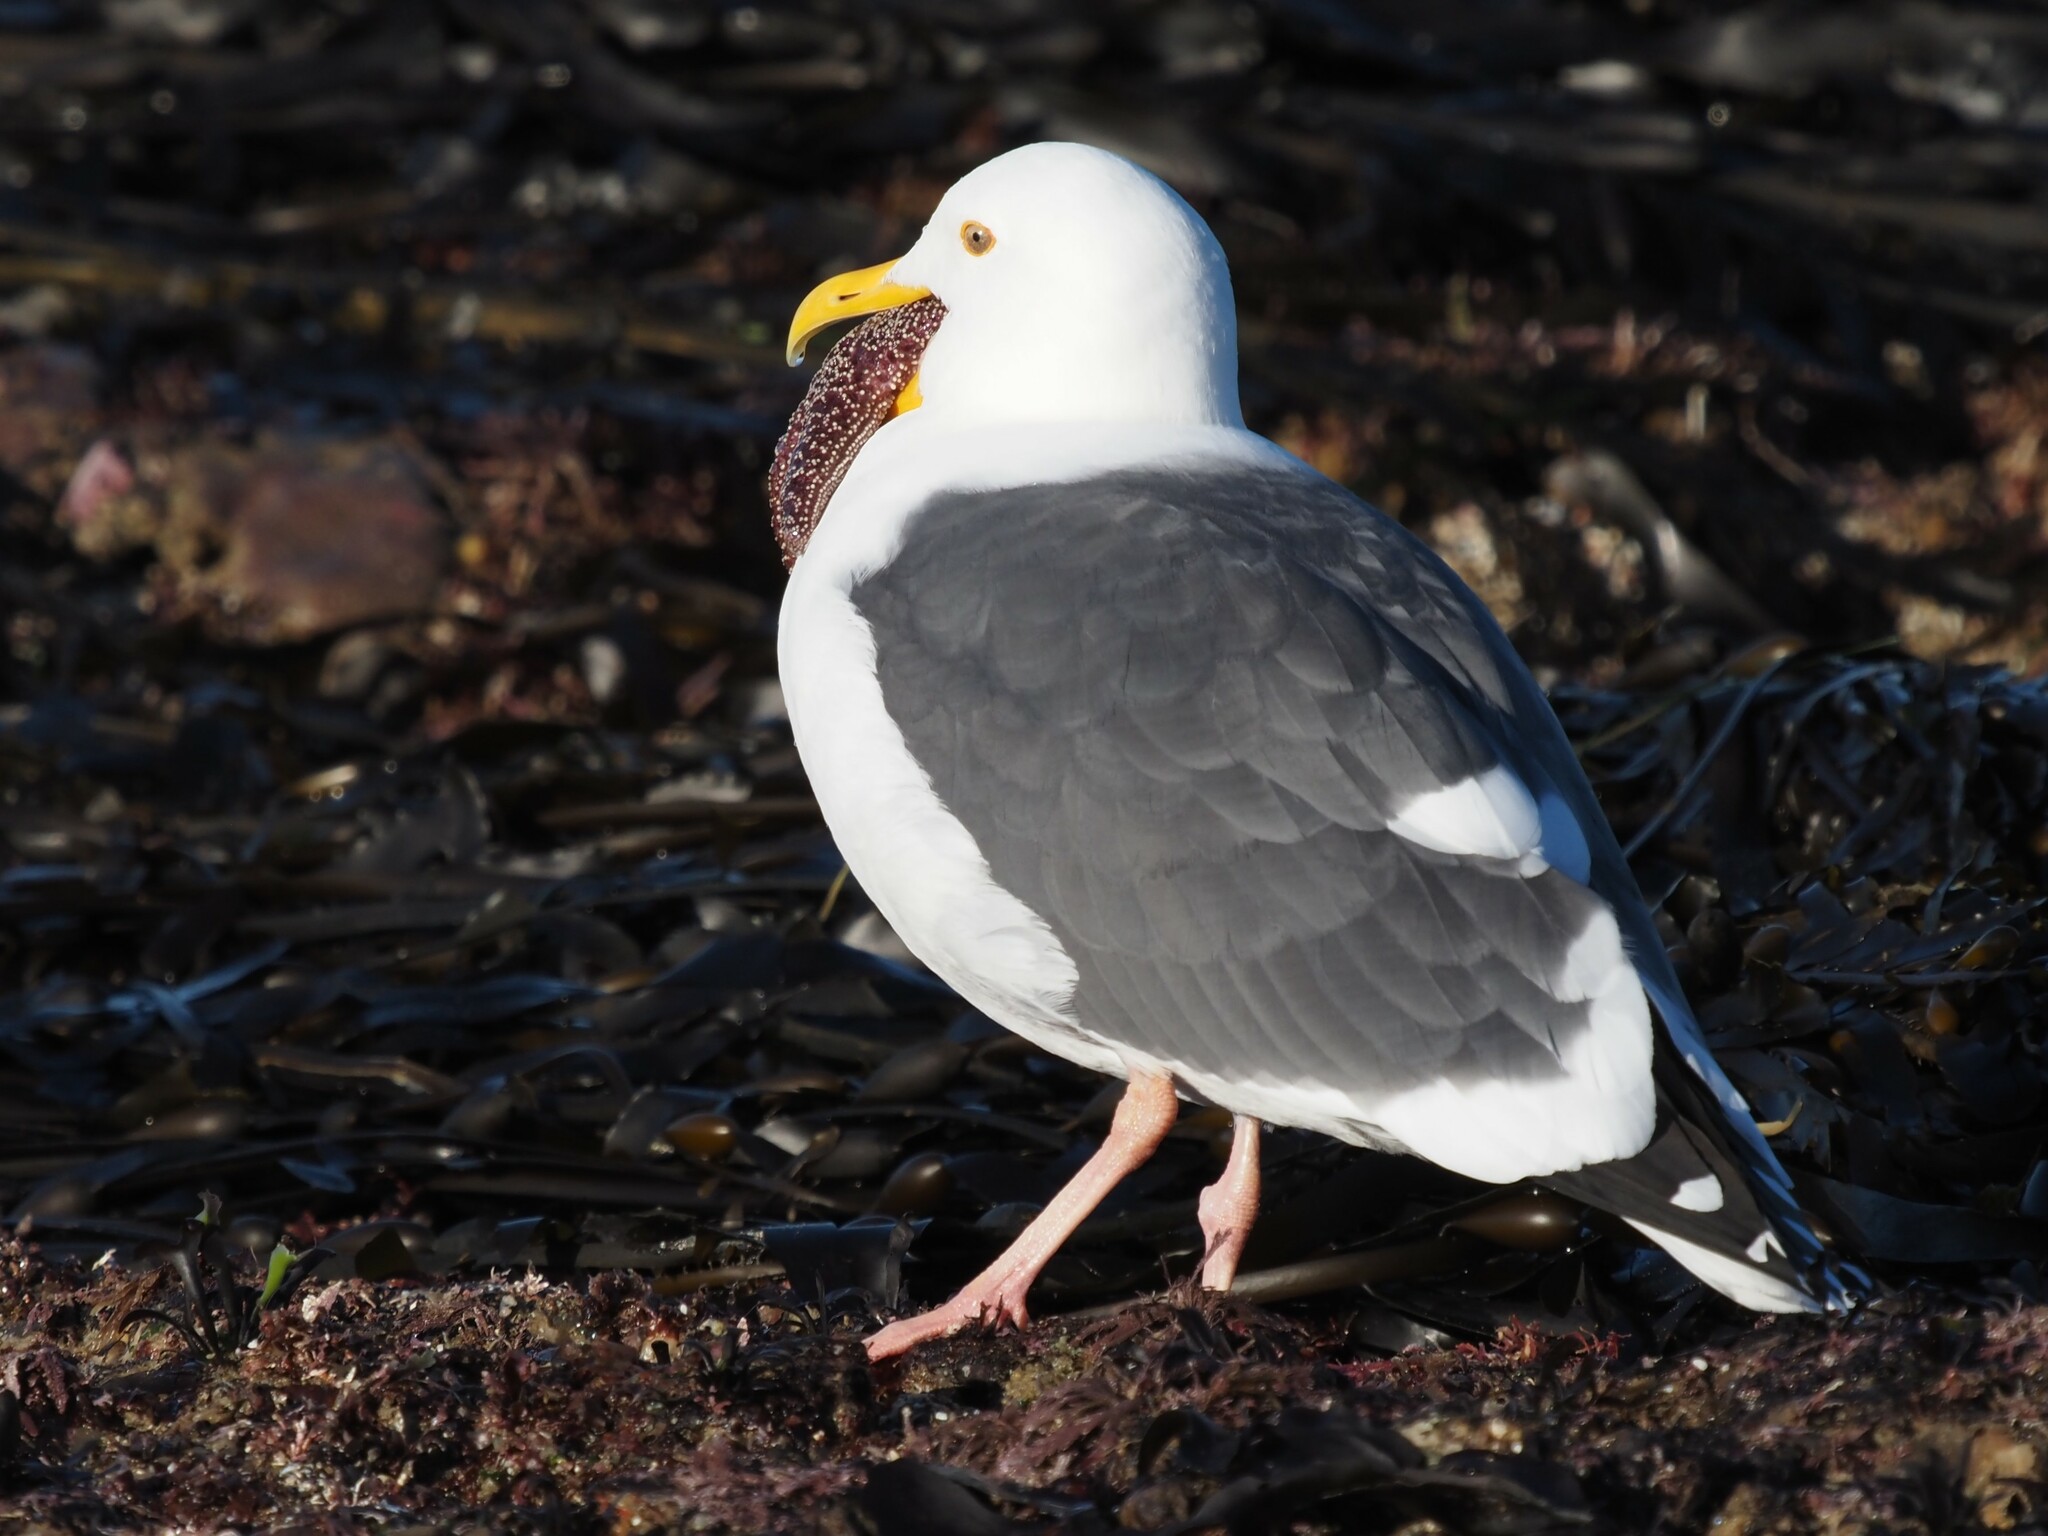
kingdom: Animalia
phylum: Chordata
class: Aves
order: Charadriiformes
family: Laridae
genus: Larus
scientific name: Larus occidentalis
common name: Western gull
